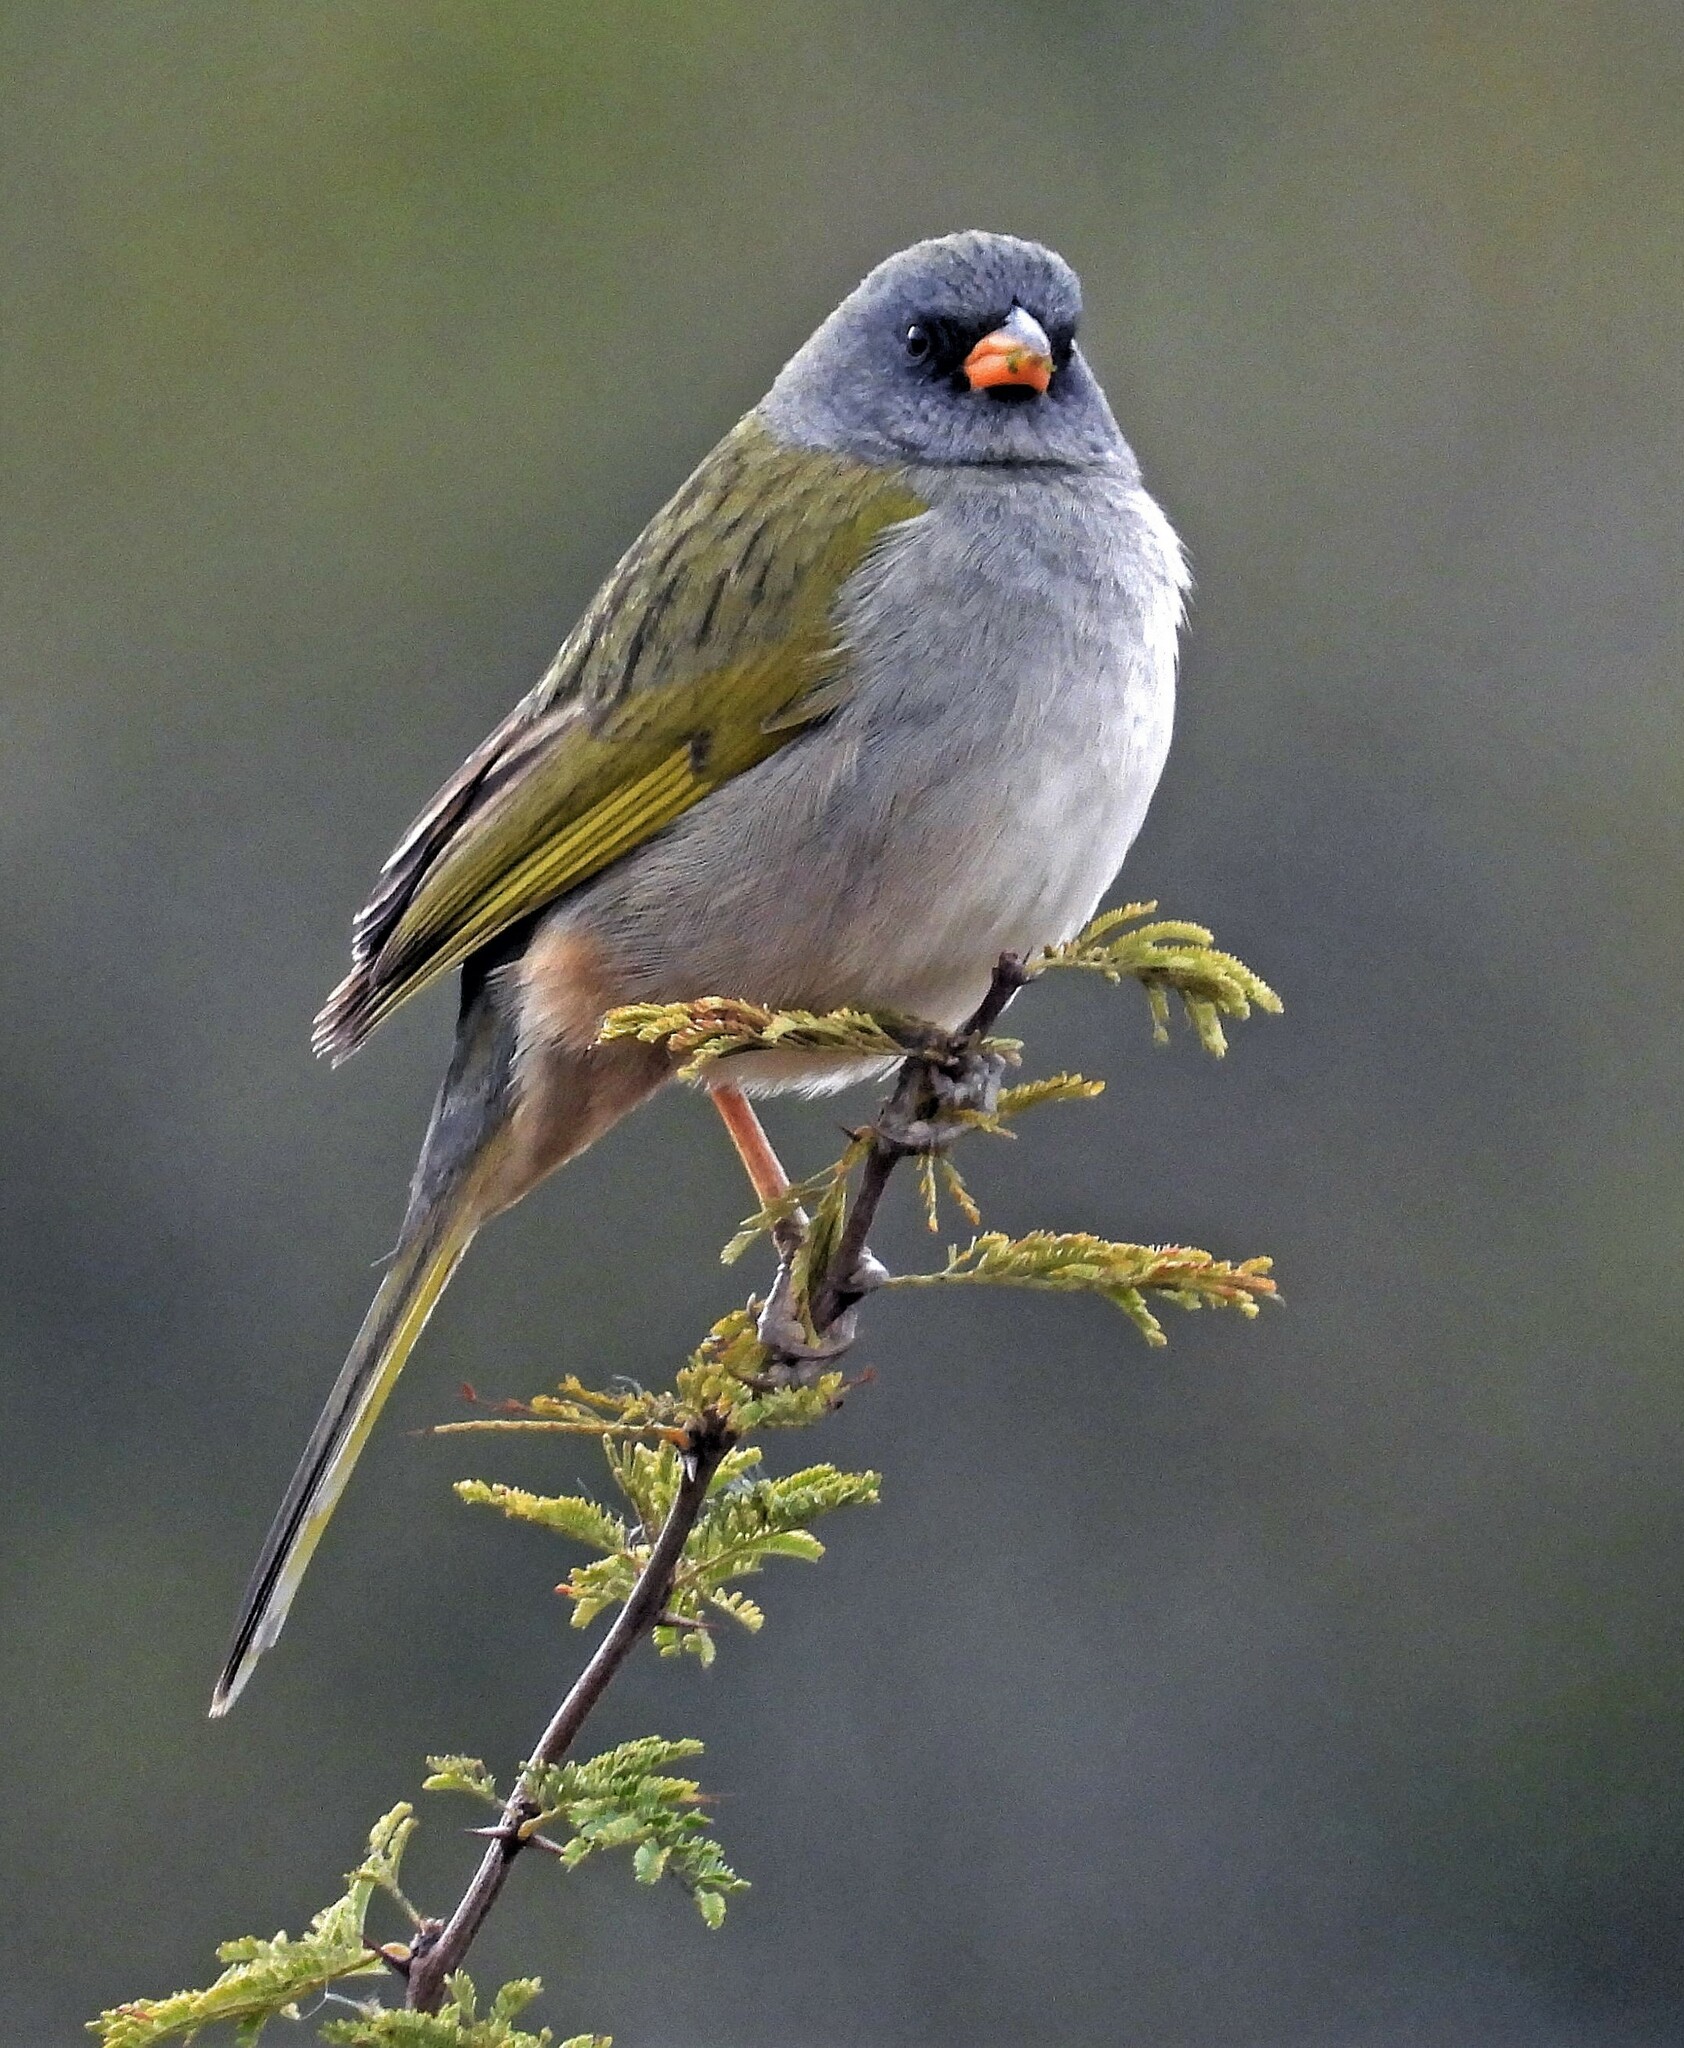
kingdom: Animalia
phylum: Chordata
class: Aves
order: Passeriformes
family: Thraupidae
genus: Embernagra
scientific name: Embernagra platensis
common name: Pampa finch
